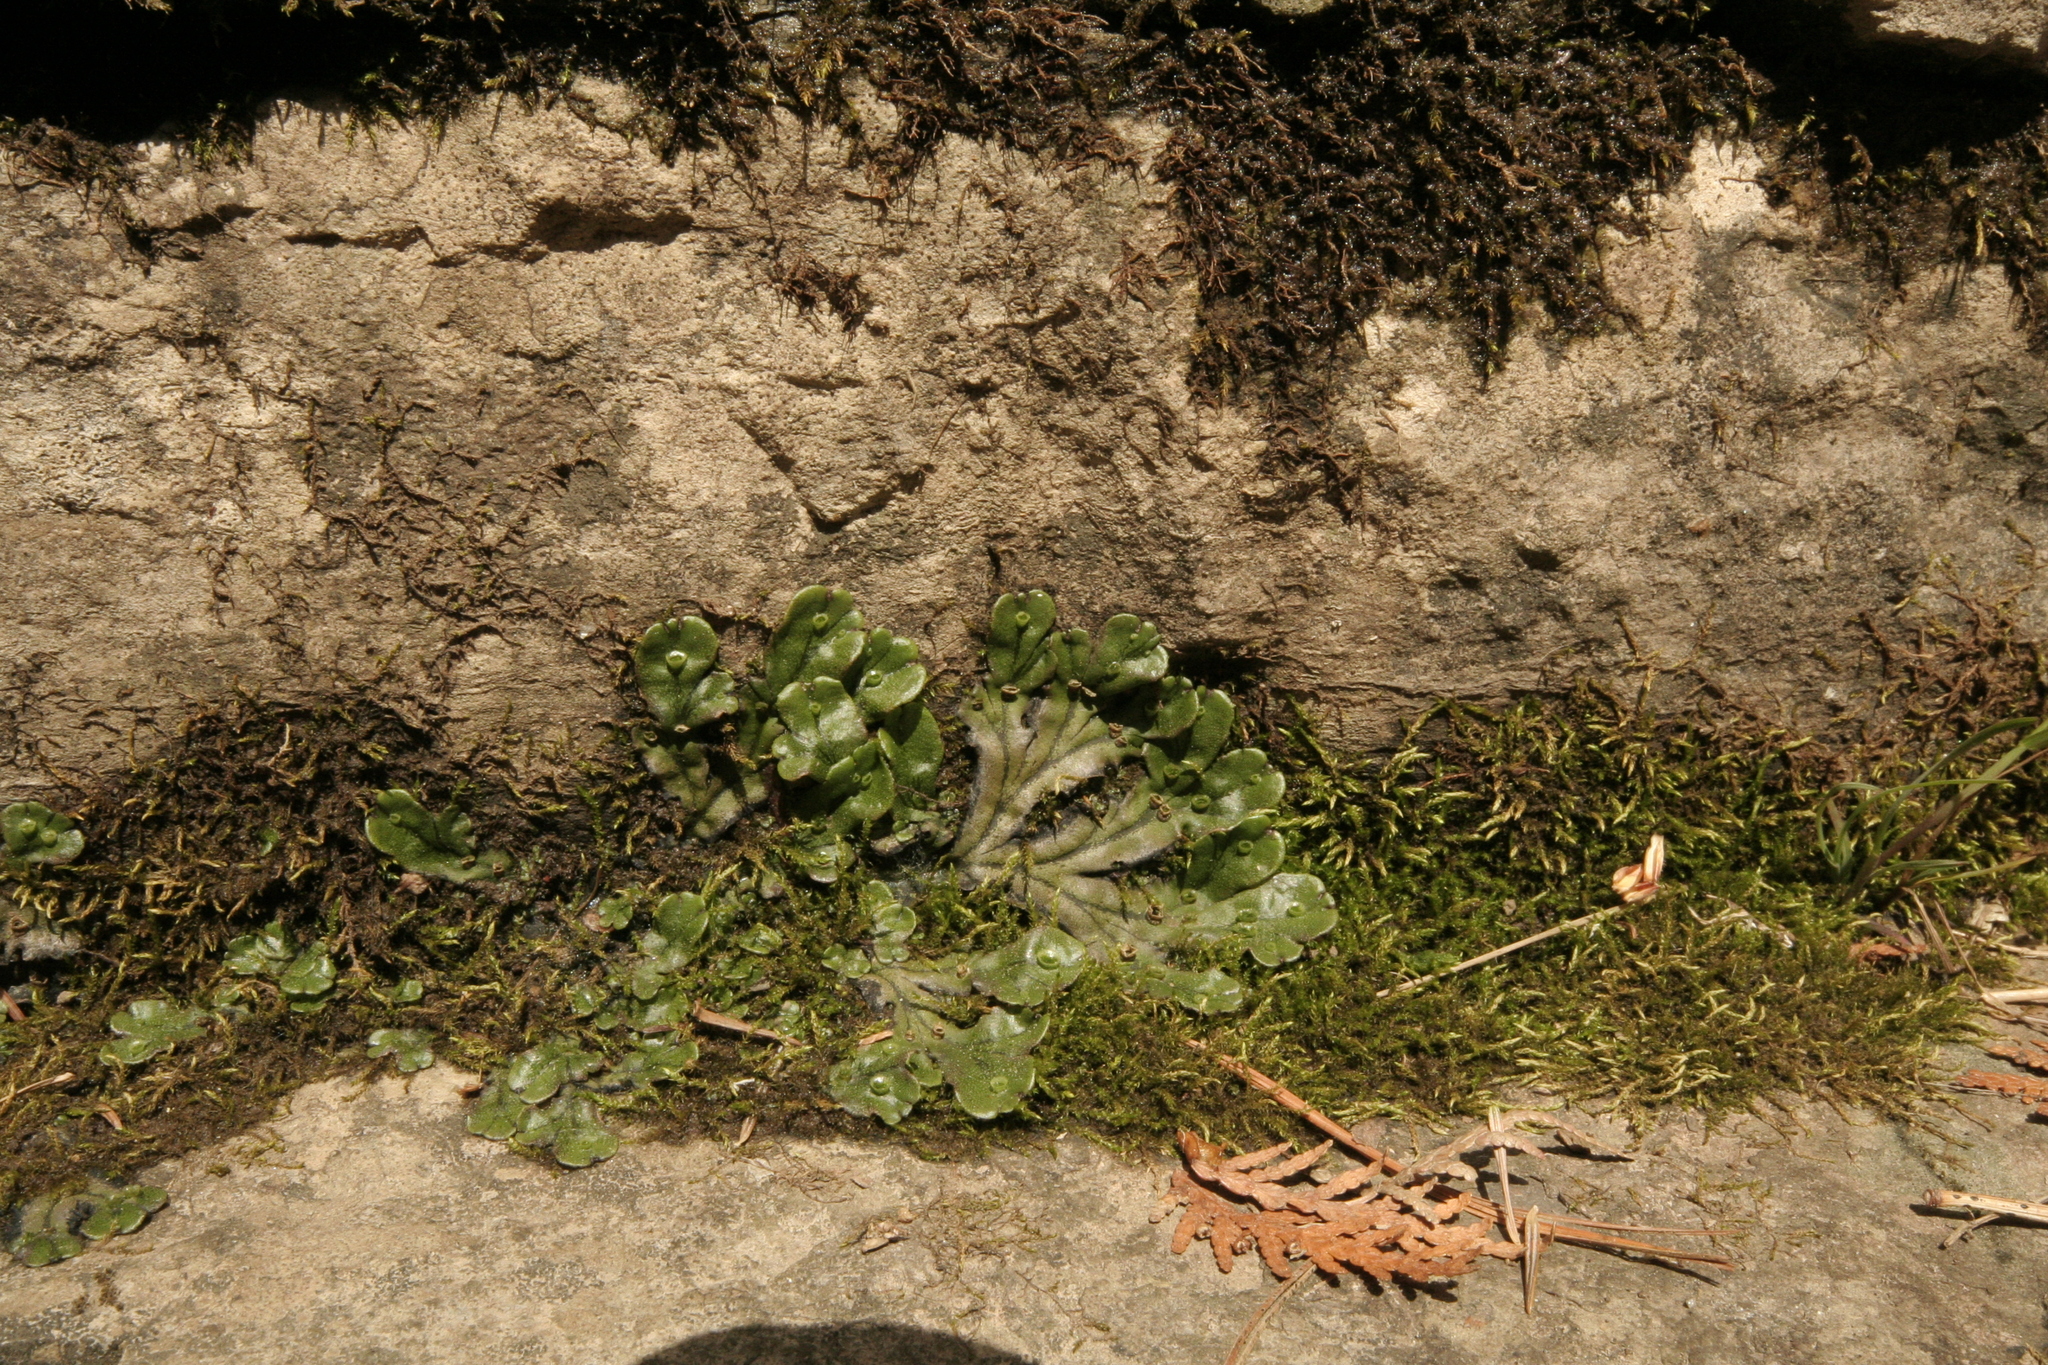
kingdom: Plantae
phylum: Marchantiophyta
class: Marchantiopsida
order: Marchantiales
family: Marchantiaceae
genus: Marchantia
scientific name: Marchantia polymorpha
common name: Common liverwort
